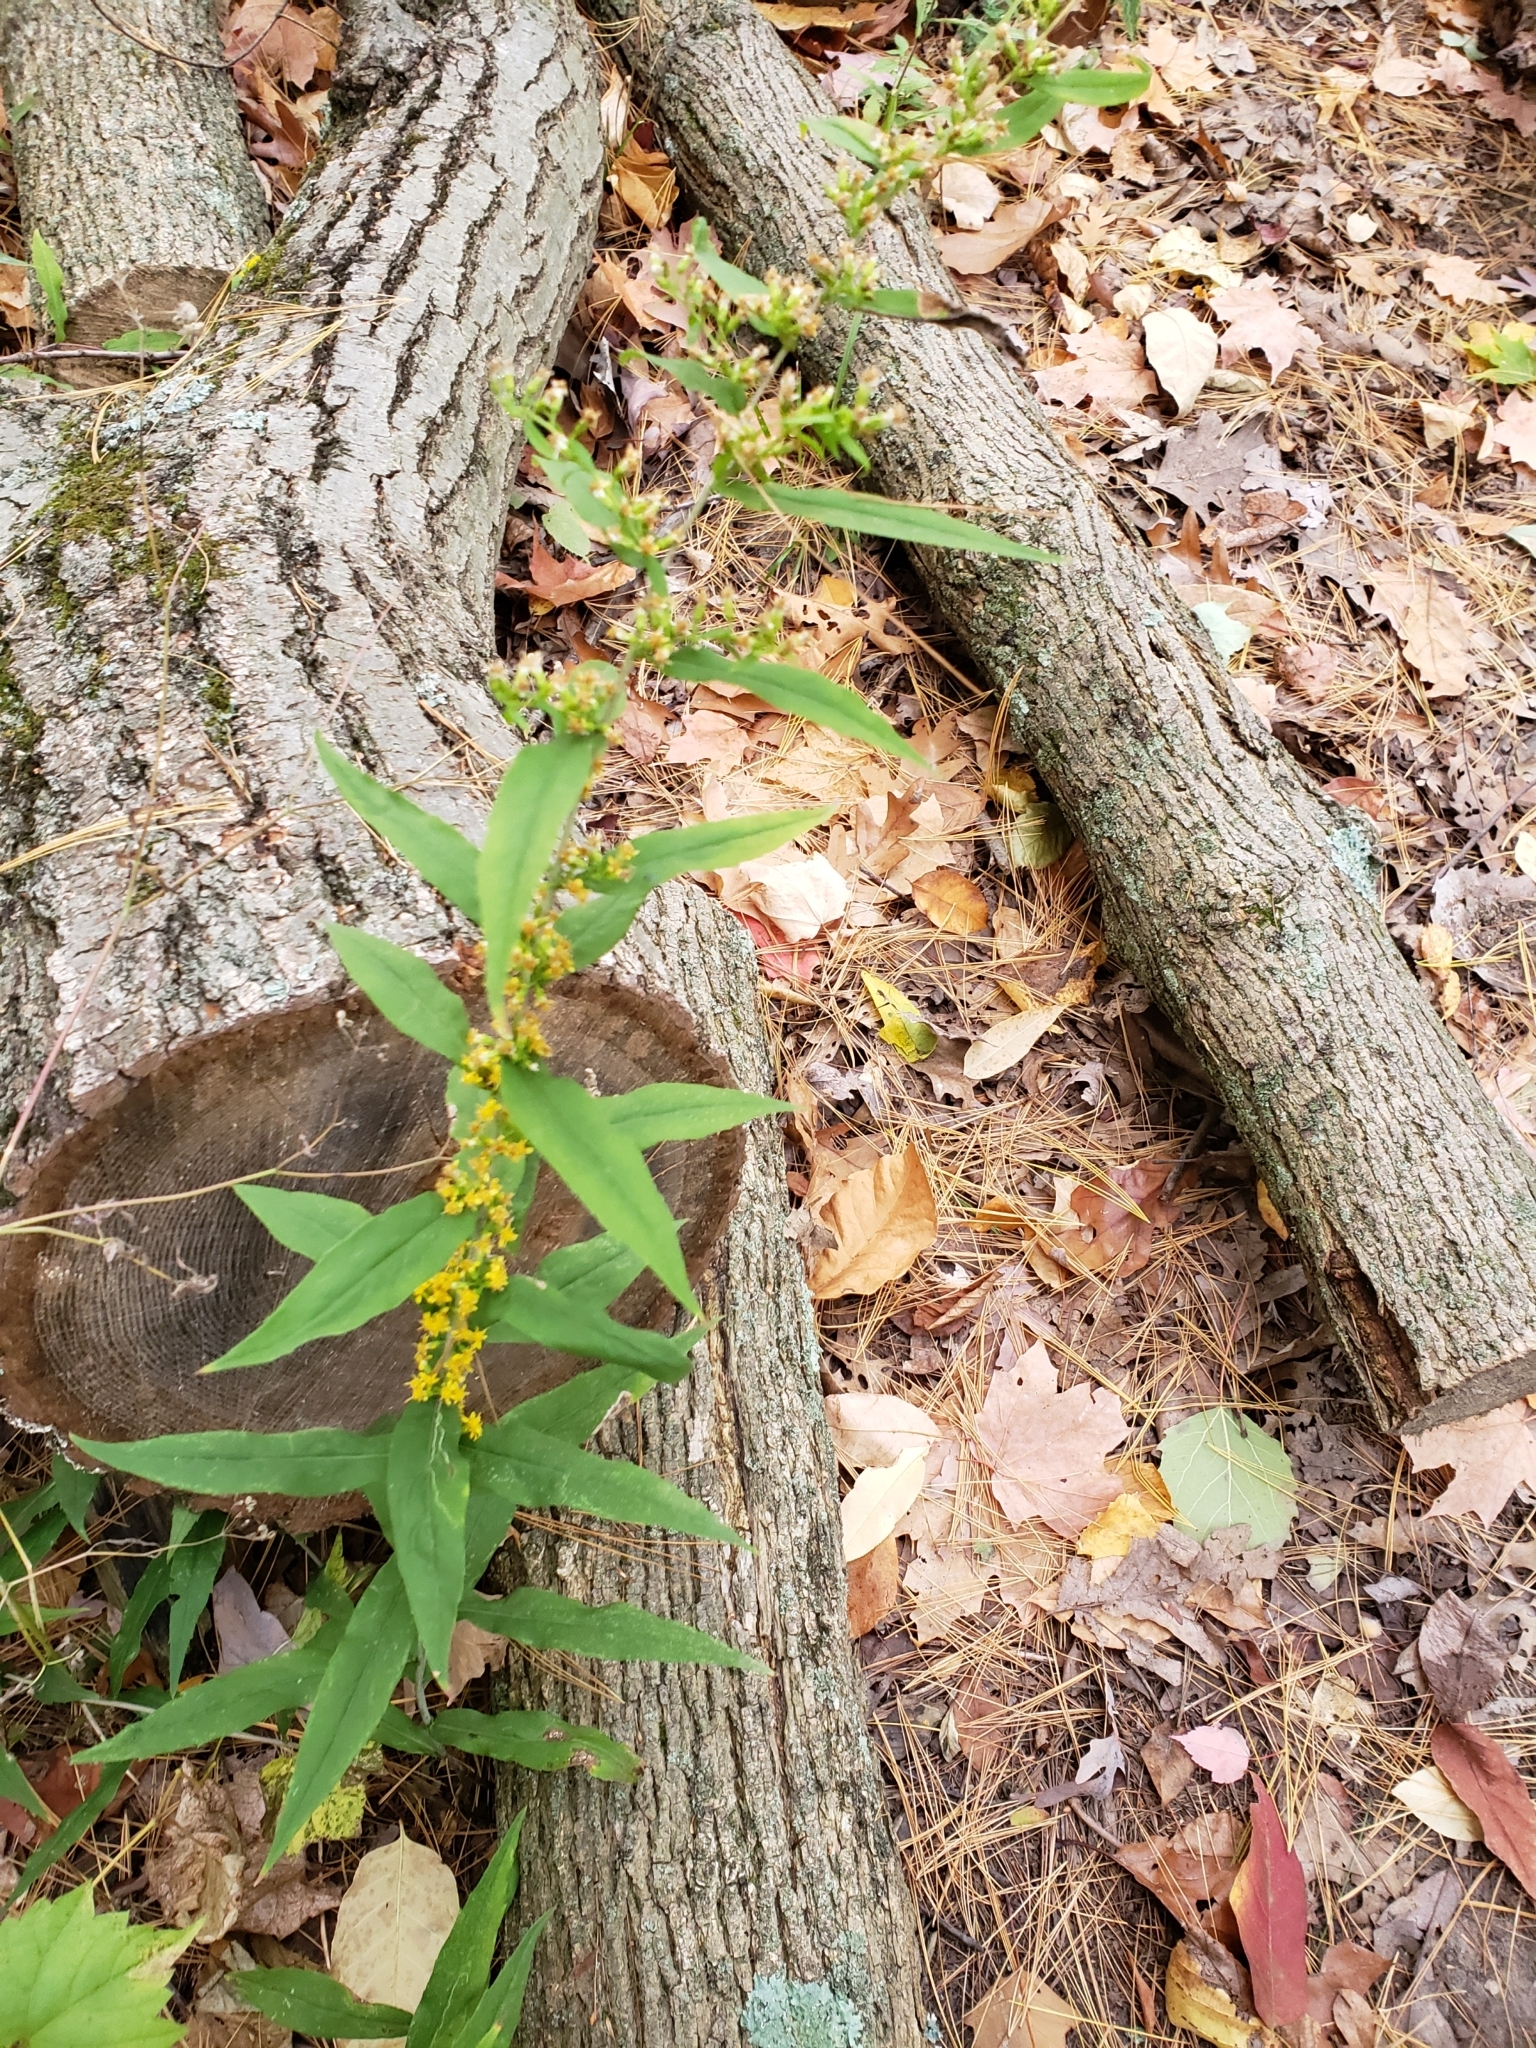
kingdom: Plantae
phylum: Tracheophyta
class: Magnoliopsida
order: Asterales
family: Asteraceae
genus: Solidago
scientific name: Solidago caesia
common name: Woodland goldenrod
